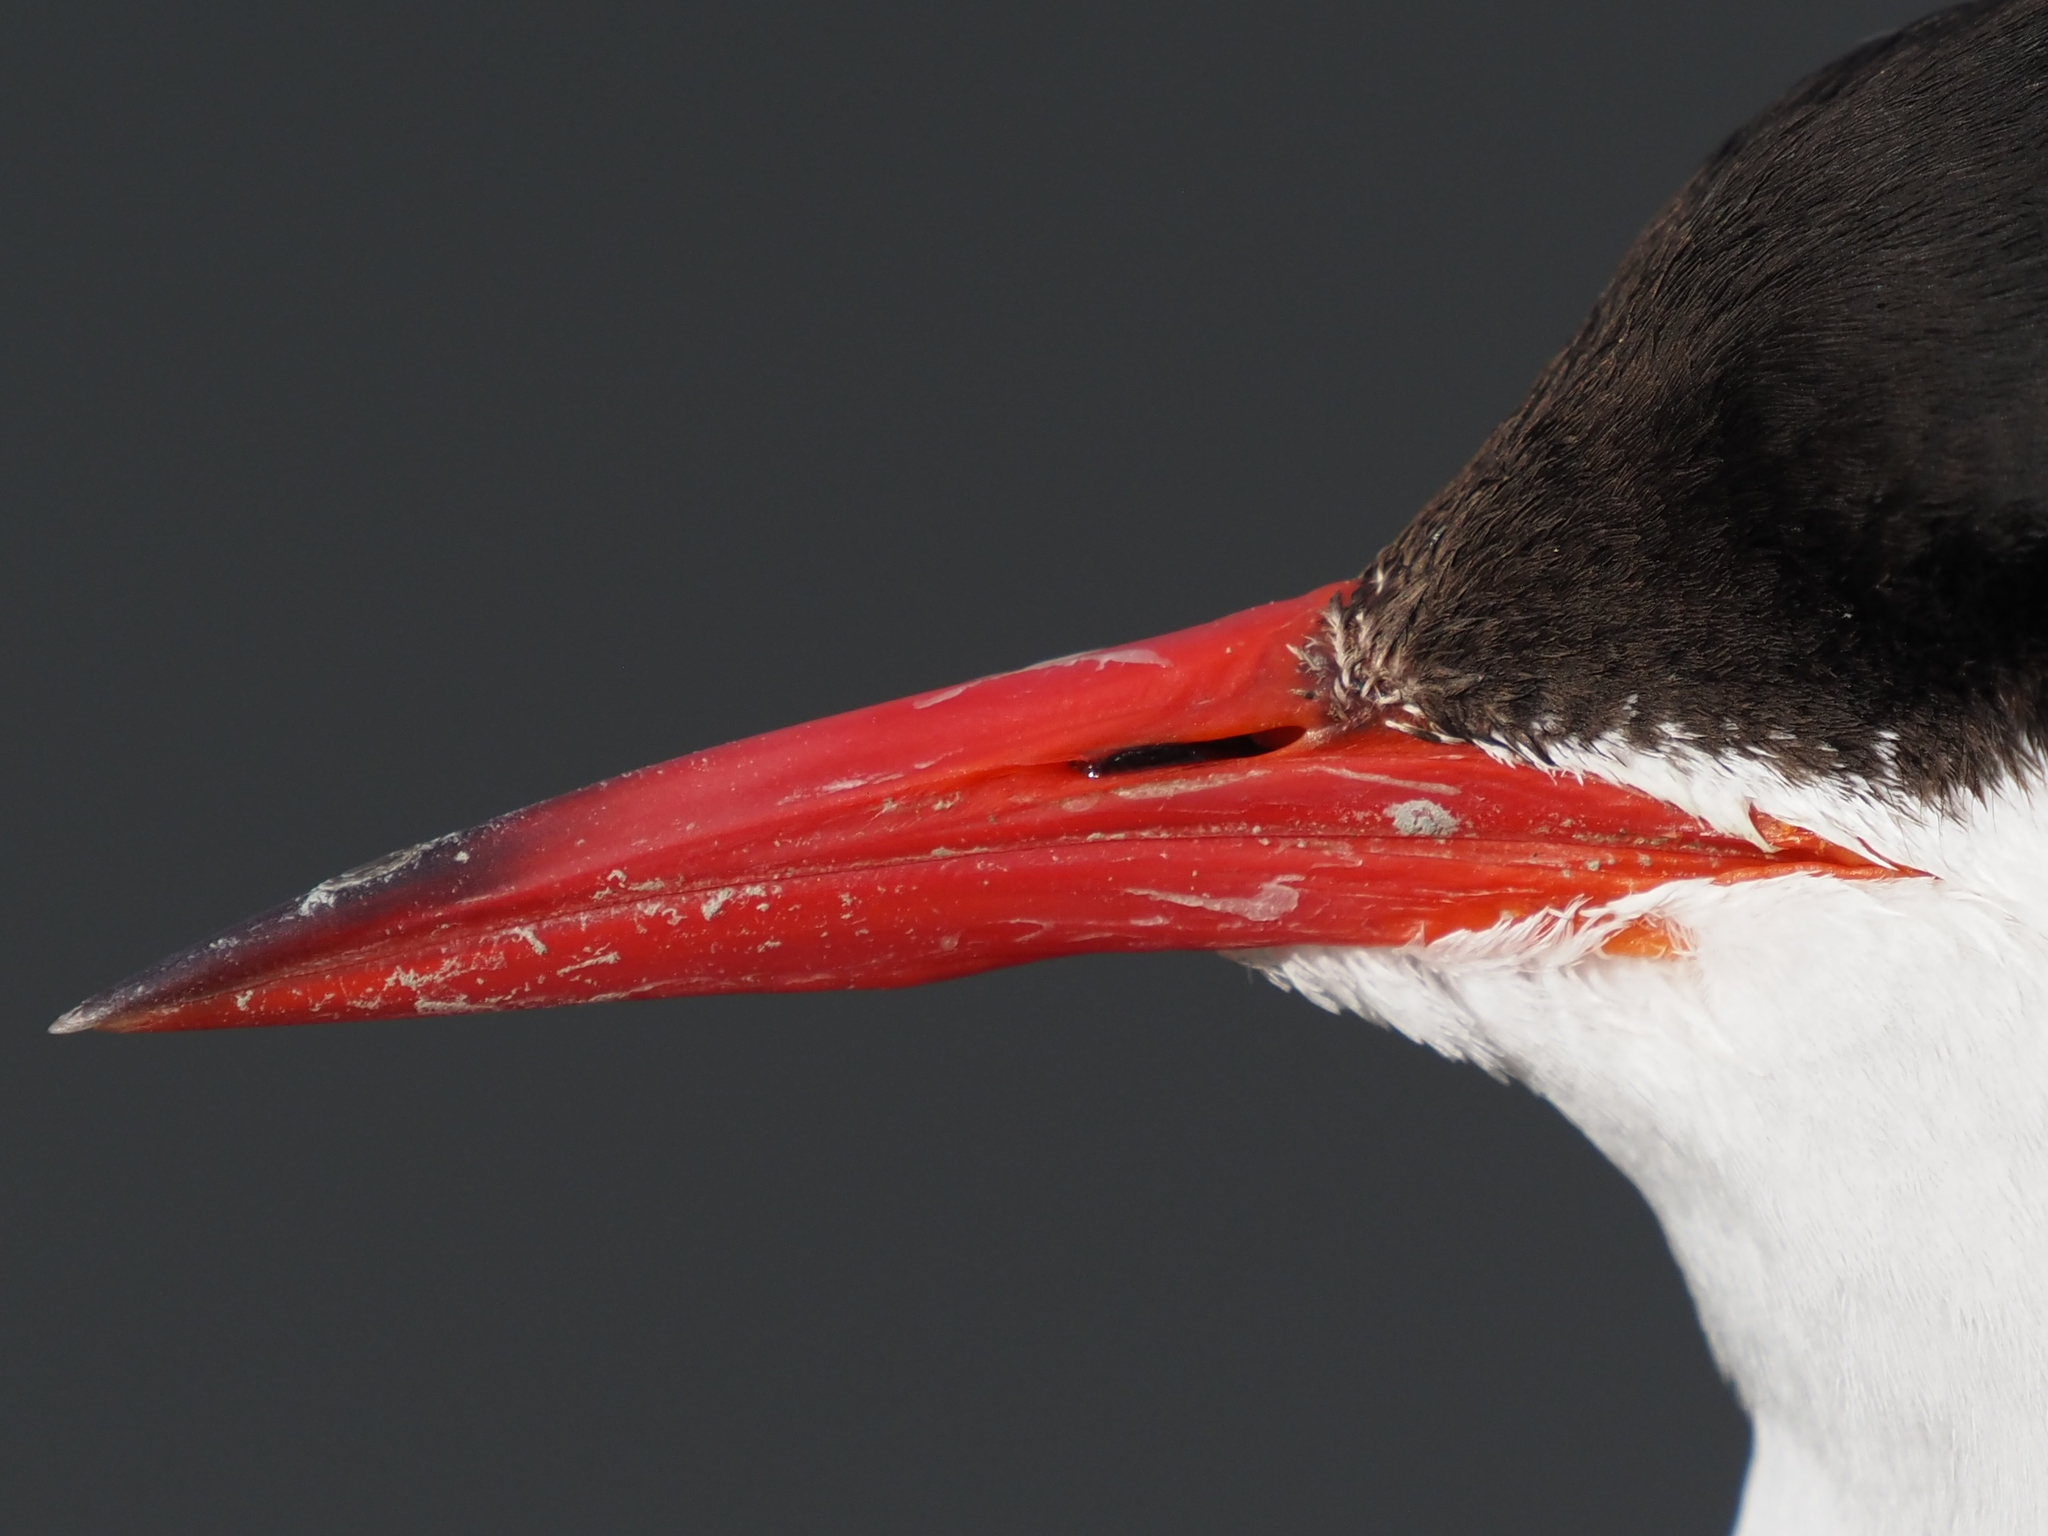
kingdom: Animalia
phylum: Chordata
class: Aves
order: Charadriiformes
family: Laridae
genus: Sterna
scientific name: Sterna paradisaea
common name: Arctic tern
